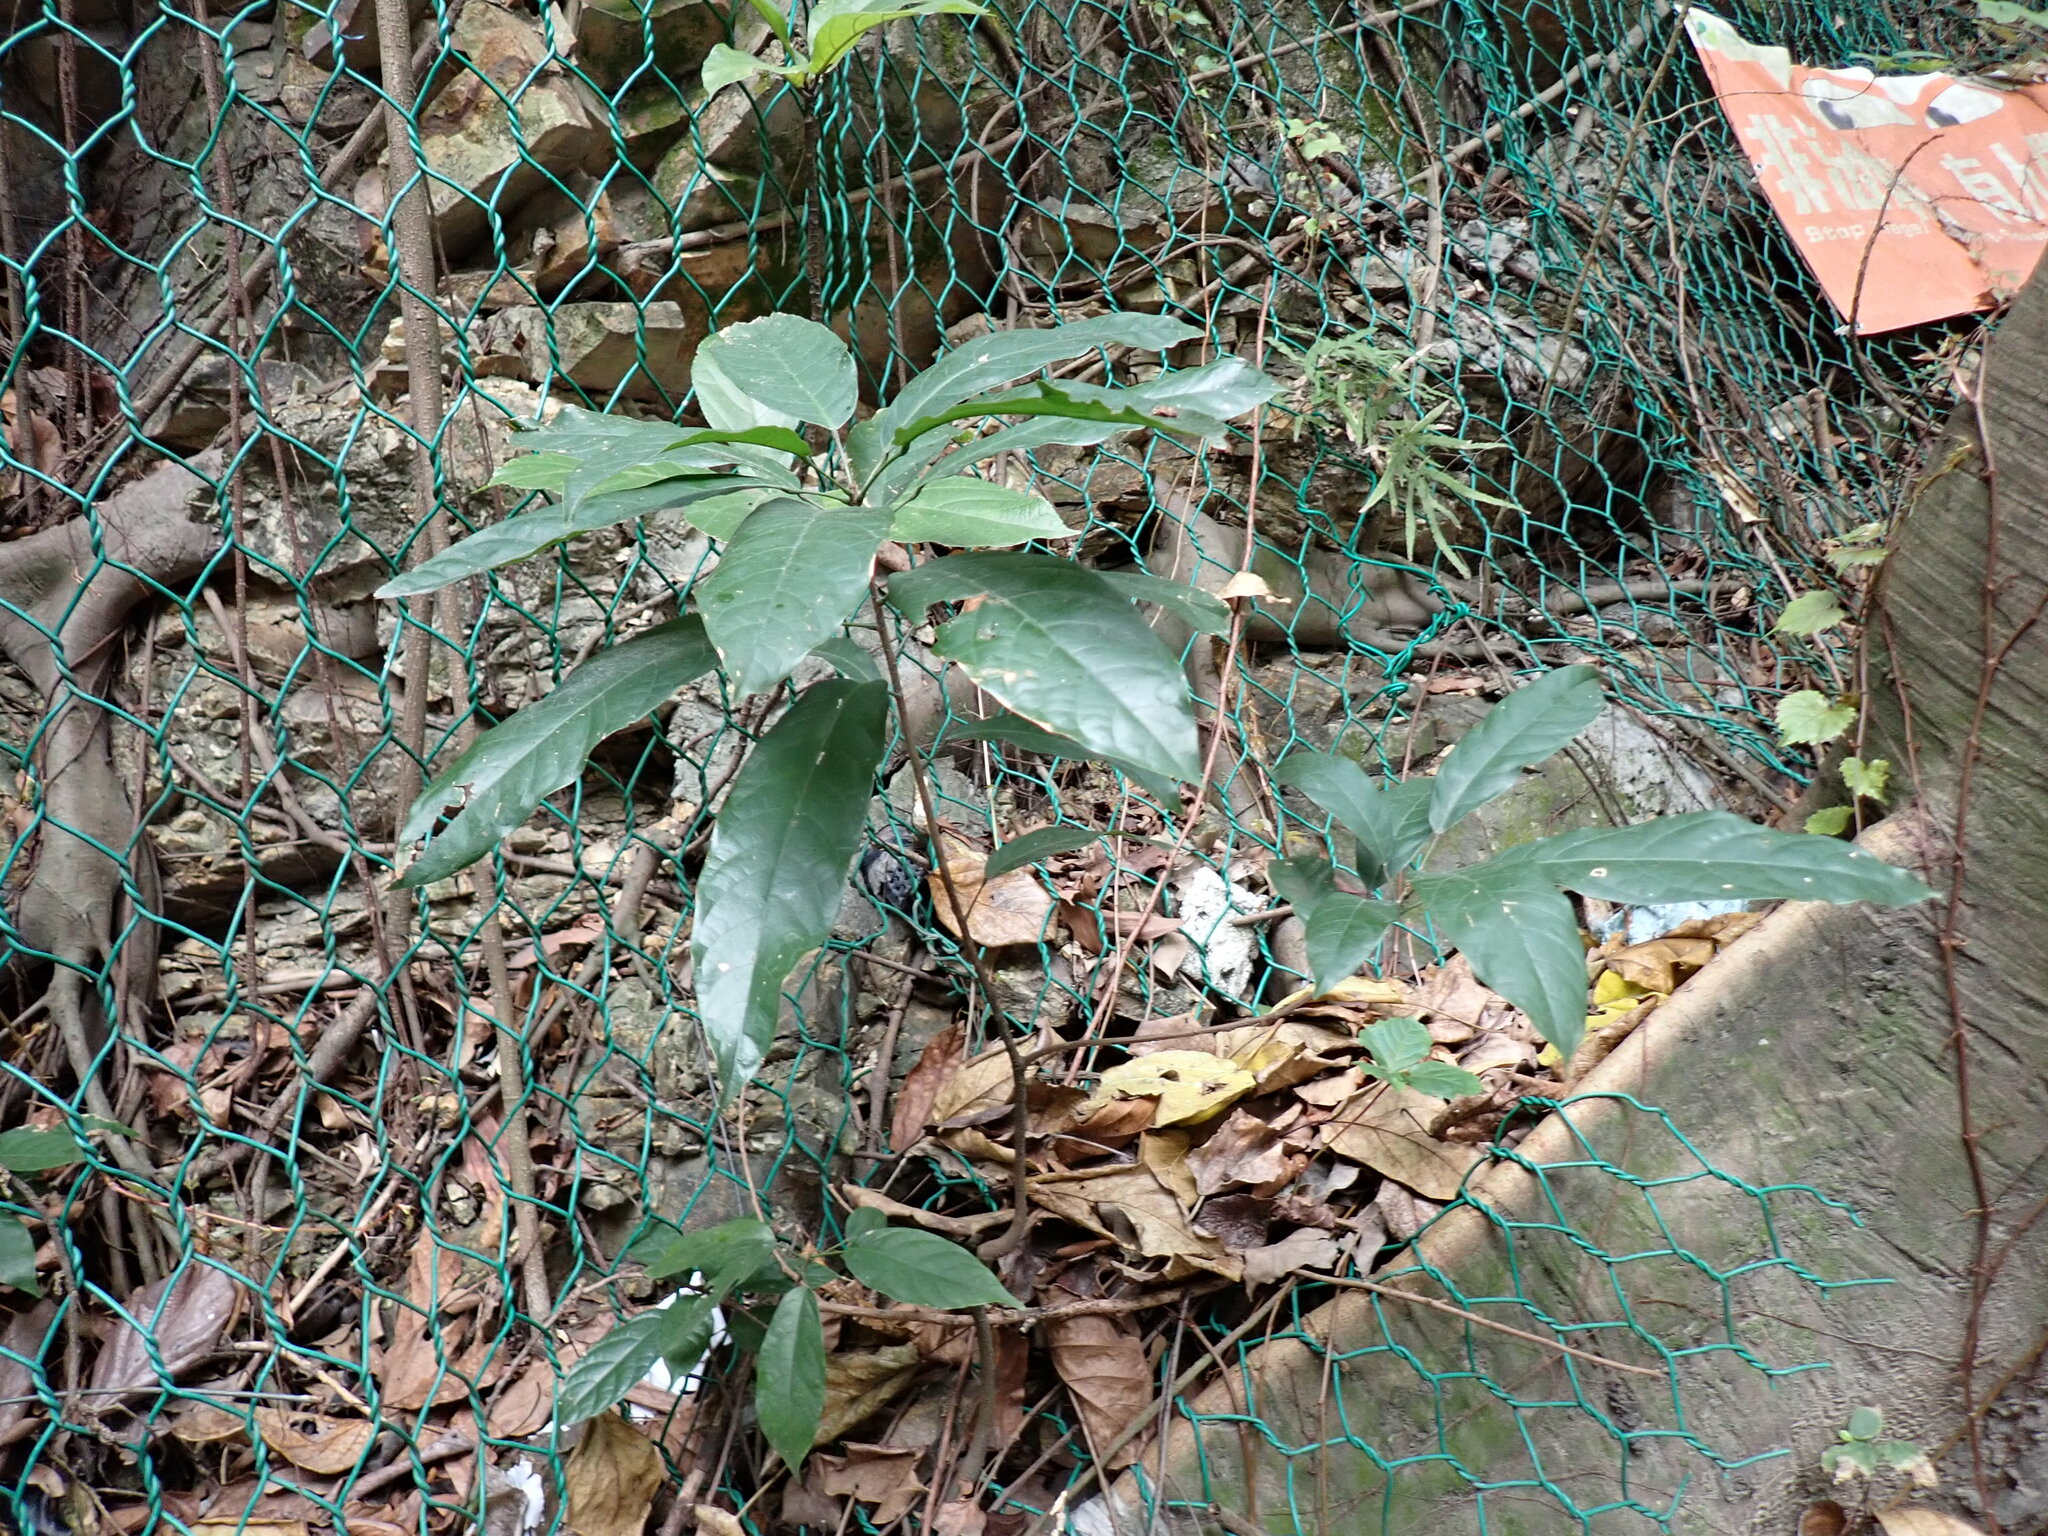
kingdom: Plantae
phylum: Tracheophyta
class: Magnoliopsida
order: Malvales
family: Malvaceae
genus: Sterculia
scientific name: Sterculia lanceolata
